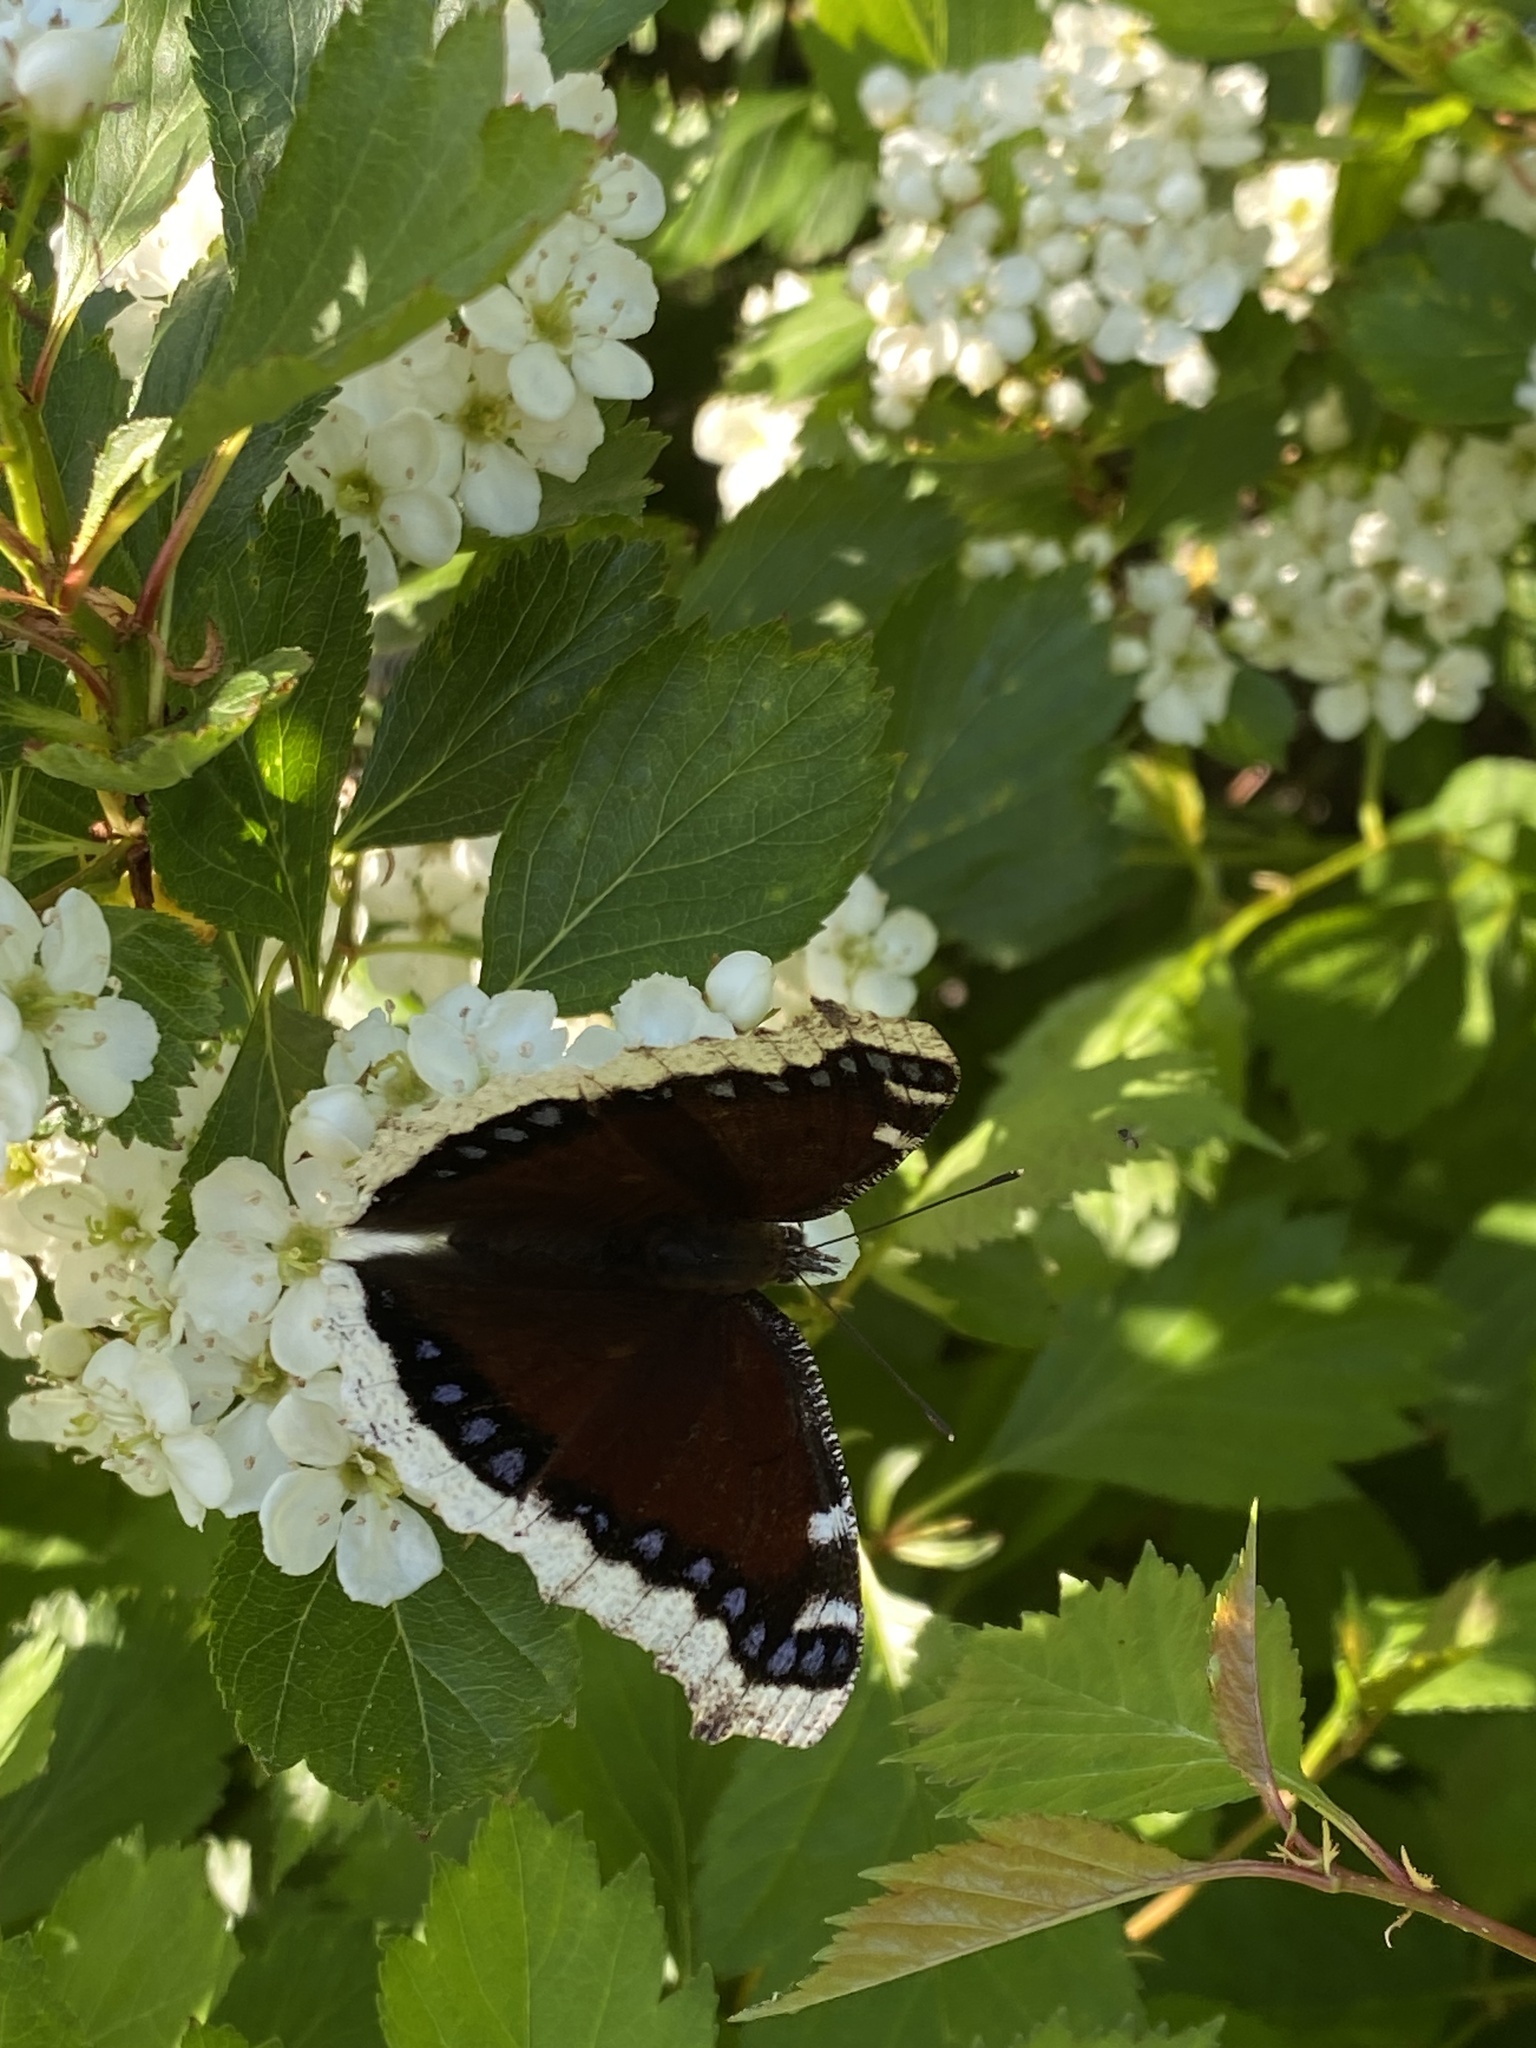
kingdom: Animalia
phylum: Arthropoda
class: Insecta
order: Lepidoptera
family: Nymphalidae
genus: Nymphalis
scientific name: Nymphalis antiopa
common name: Camberwell beauty
